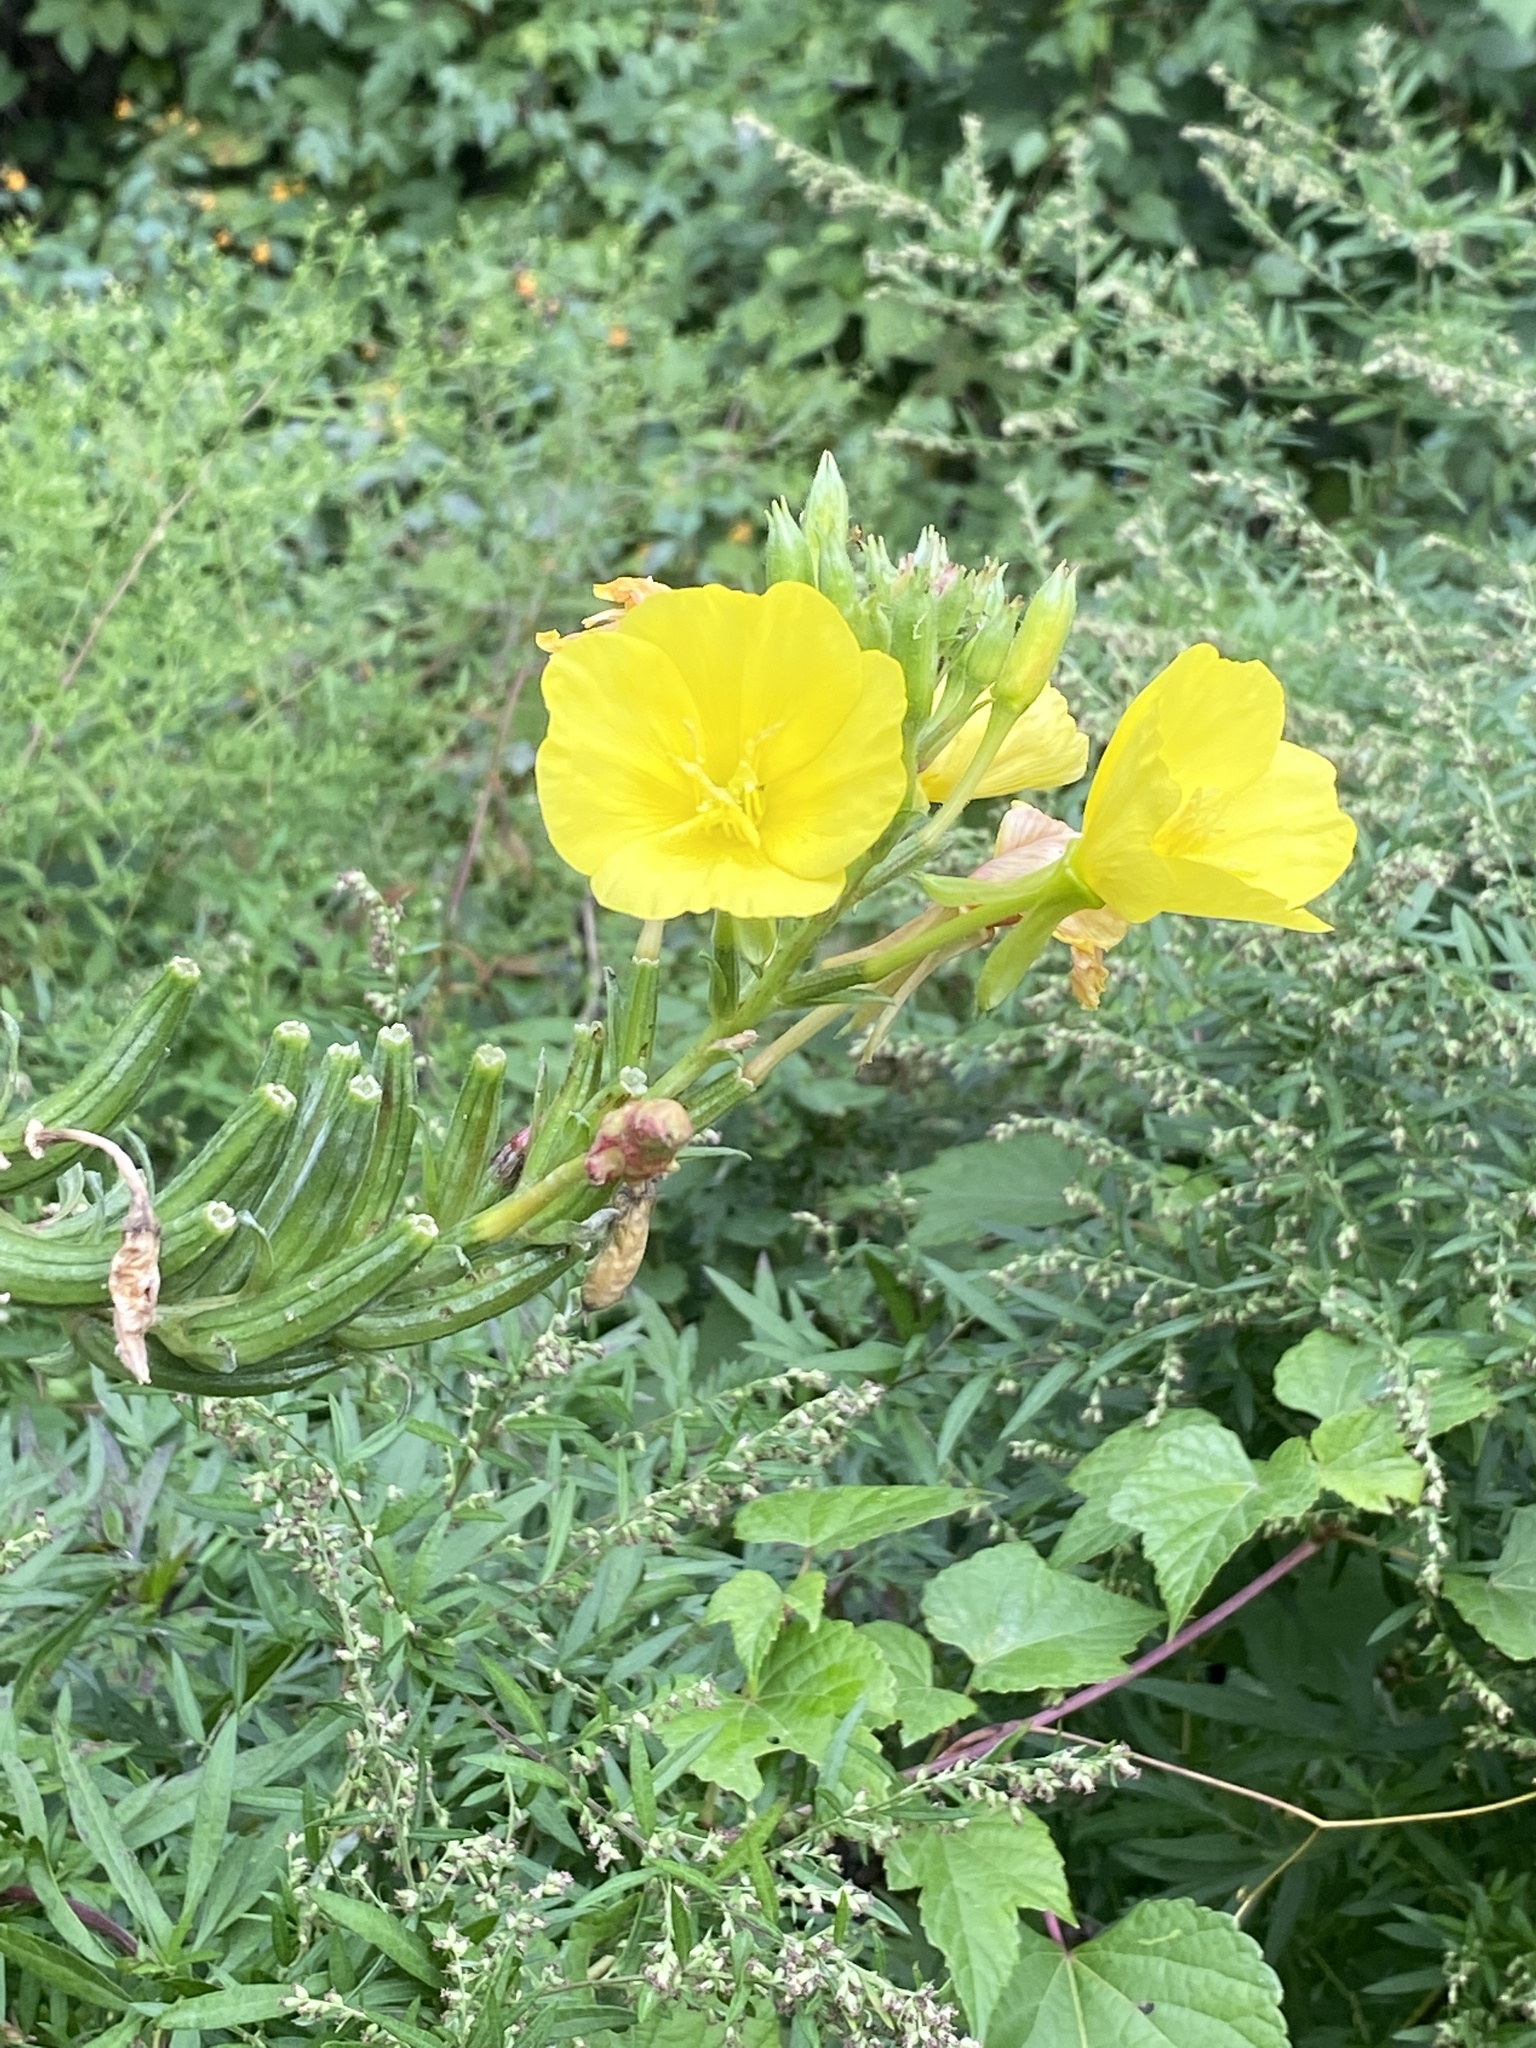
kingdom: Plantae
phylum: Tracheophyta
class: Magnoliopsida
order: Myrtales
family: Onagraceae
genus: Oenothera
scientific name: Oenothera biennis
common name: Common evening-primrose
